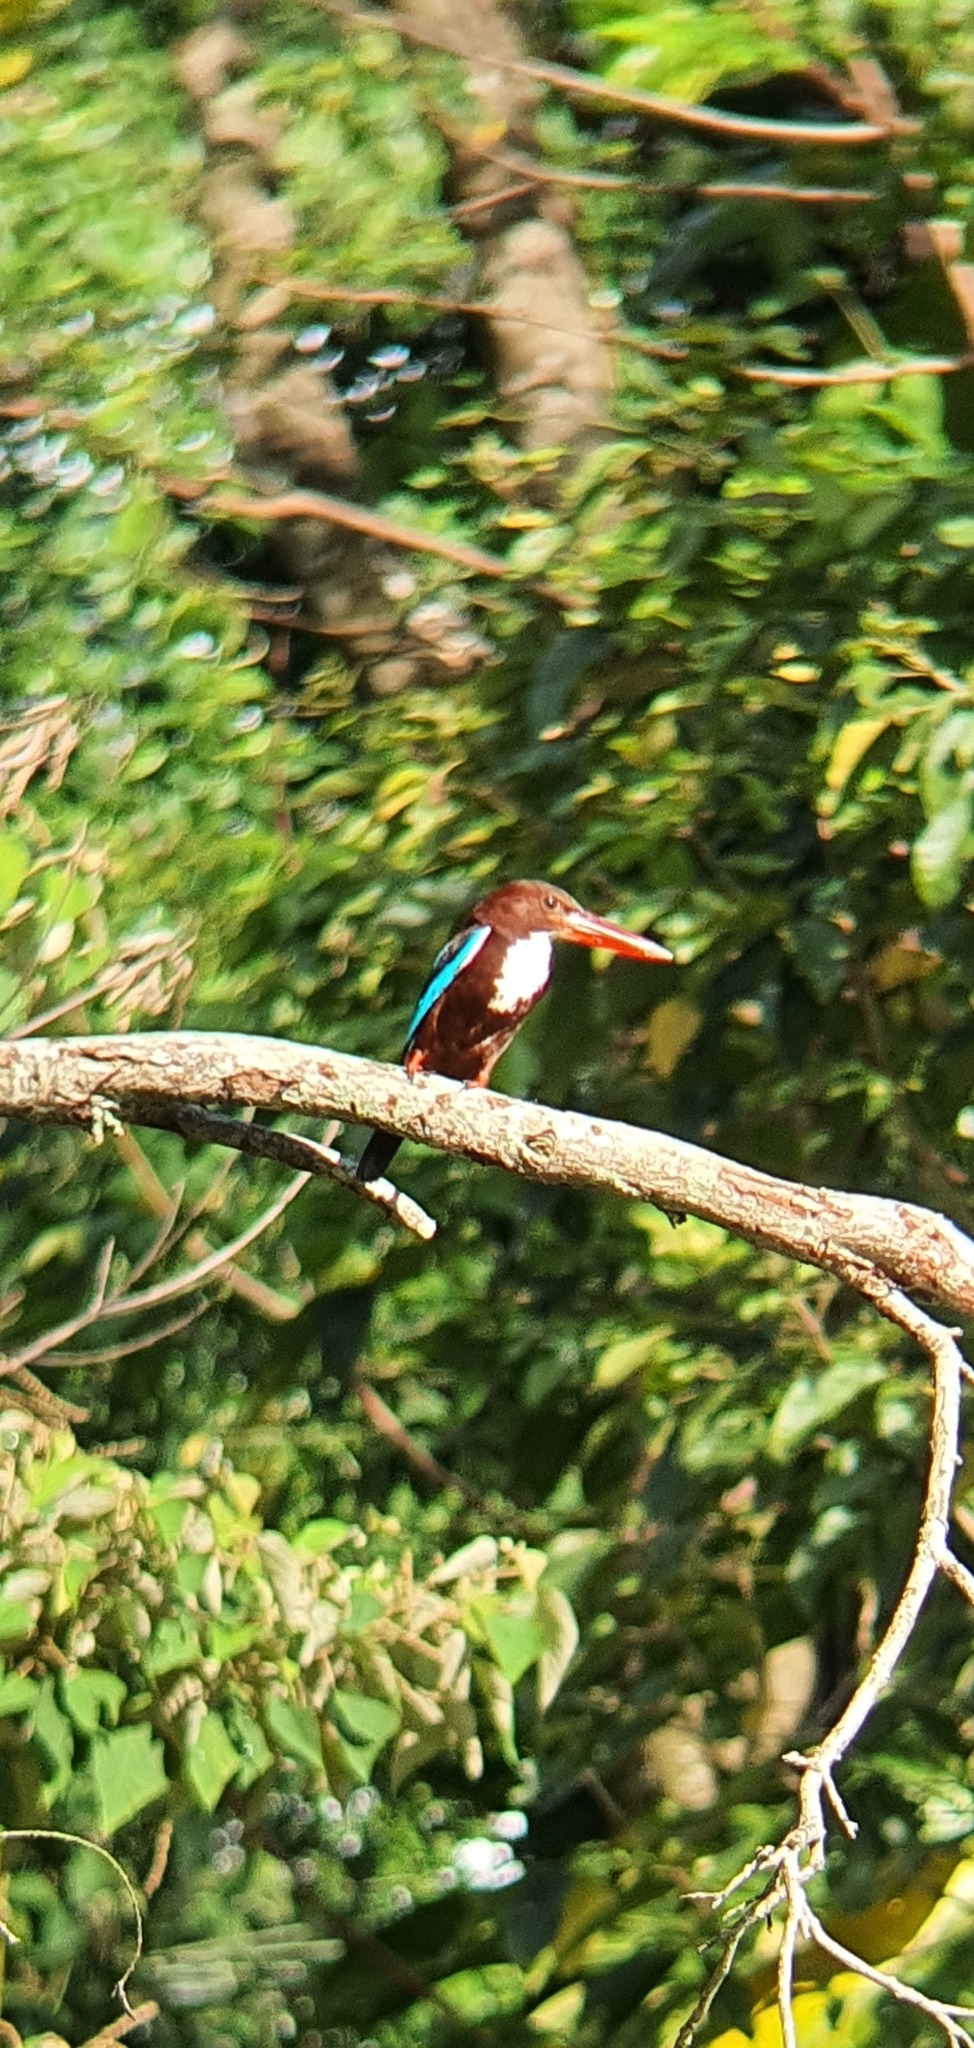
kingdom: Animalia
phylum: Chordata
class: Aves
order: Coraciiformes
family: Alcedinidae
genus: Halcyon
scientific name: Halcyon smyrnensis
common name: White-throated kingfisher
